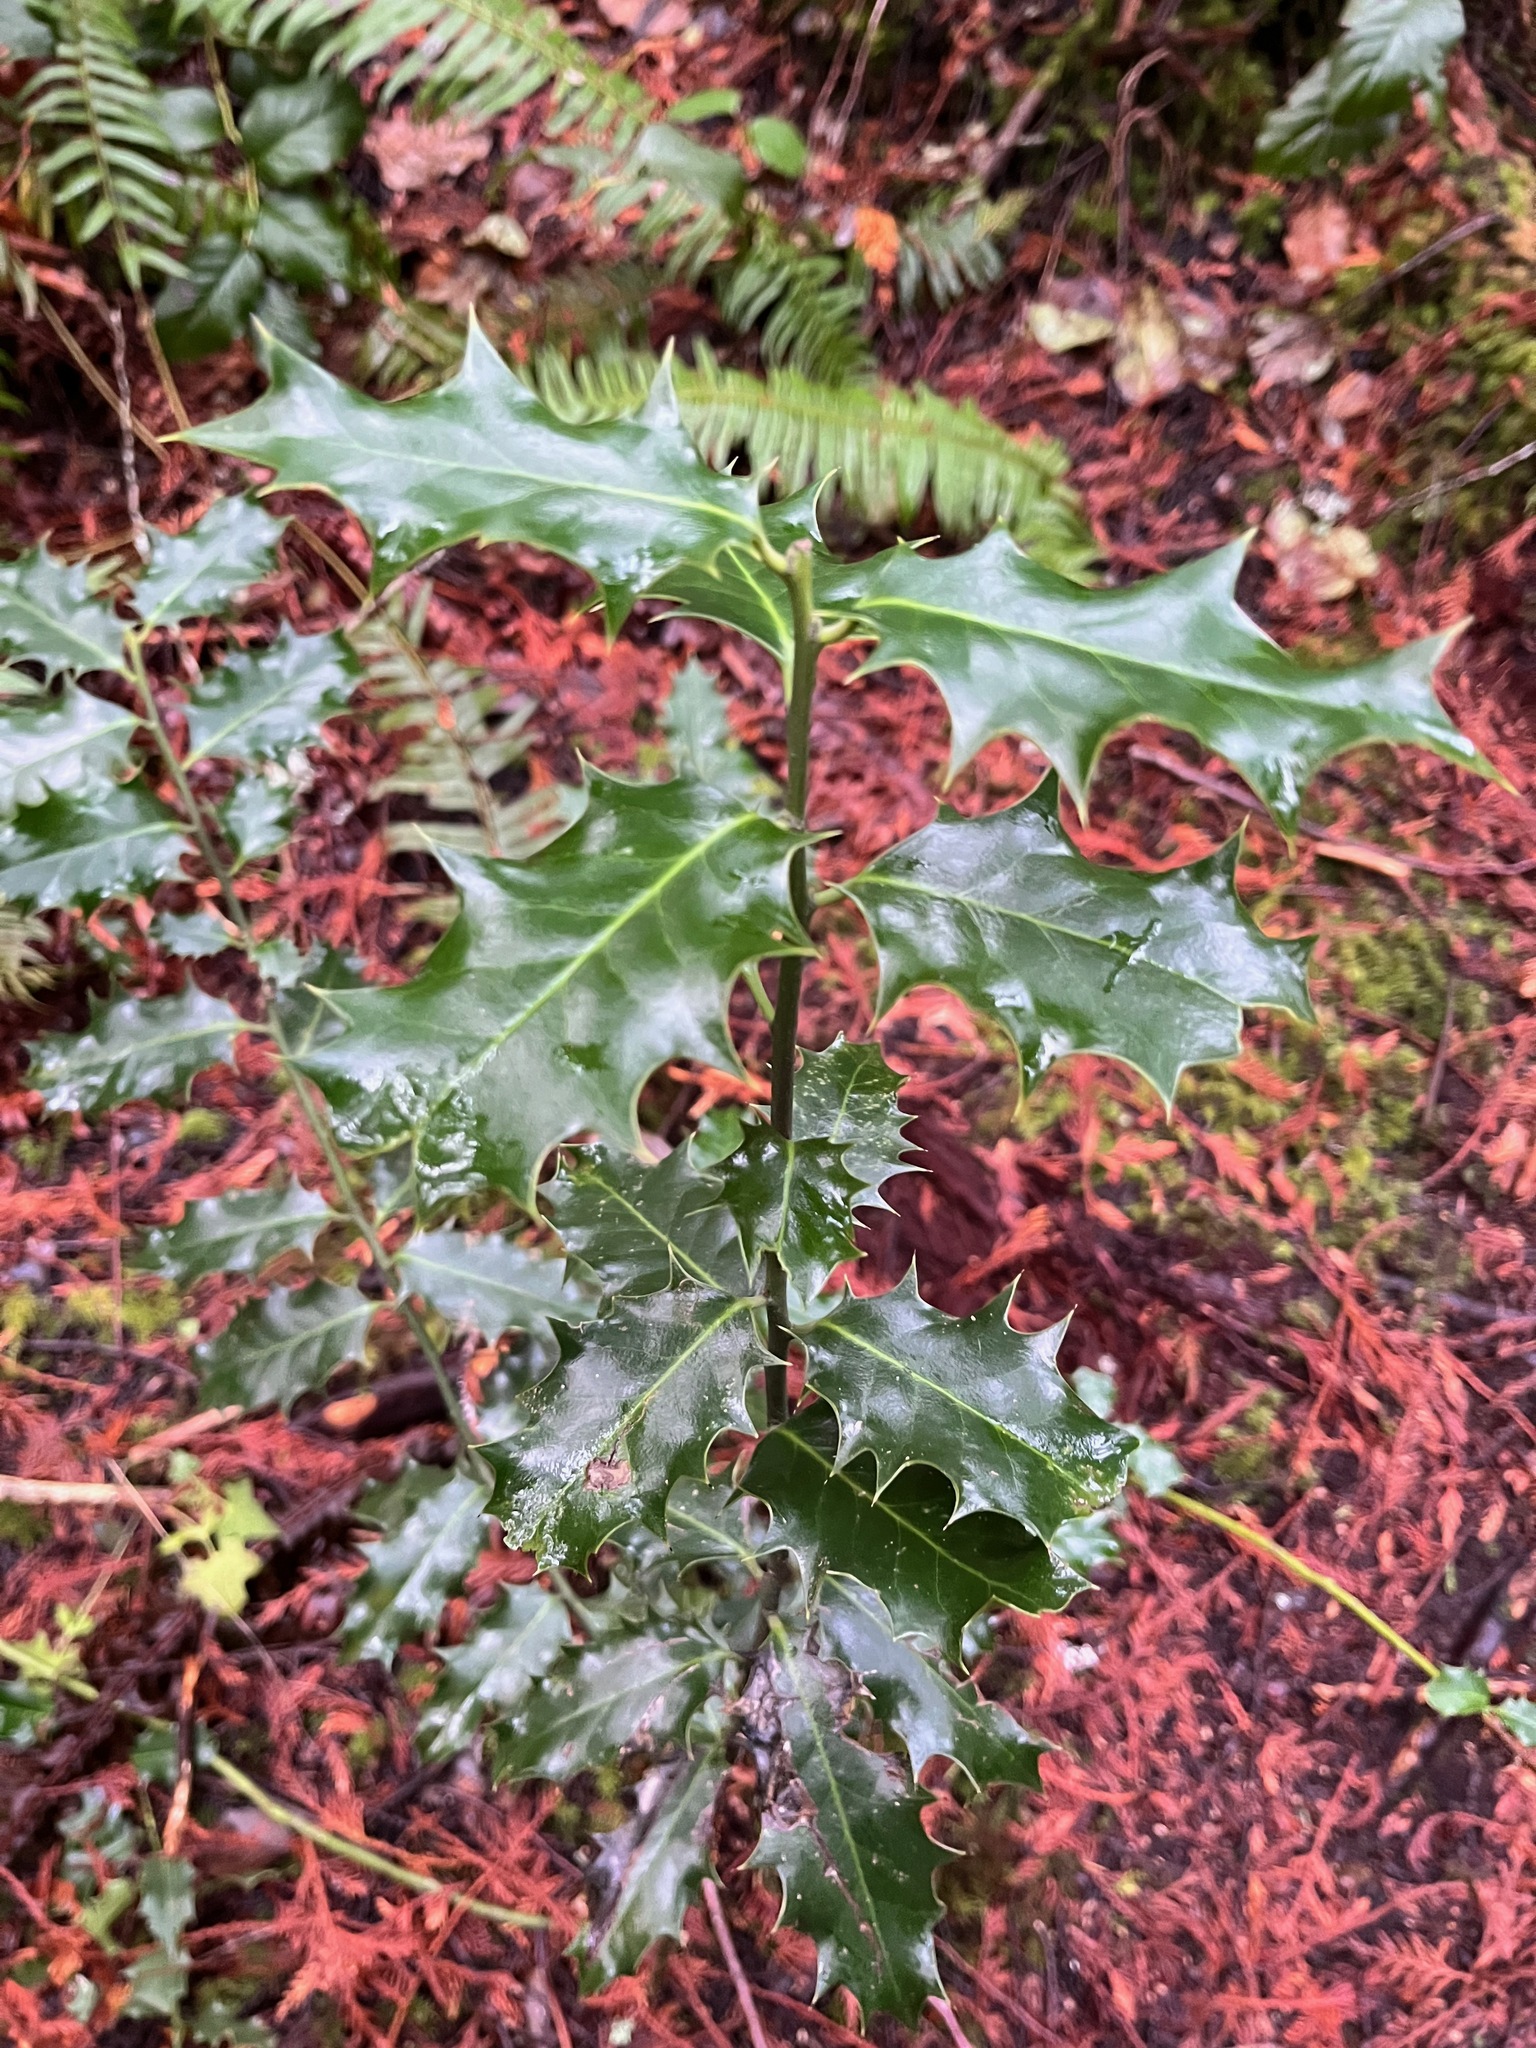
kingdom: Plantae
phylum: Tracheophyta
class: Magnoliopsida
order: Aquifoliales
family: Aquifoliaceae
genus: Ilex
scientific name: Ilex aquifolium
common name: English holly
